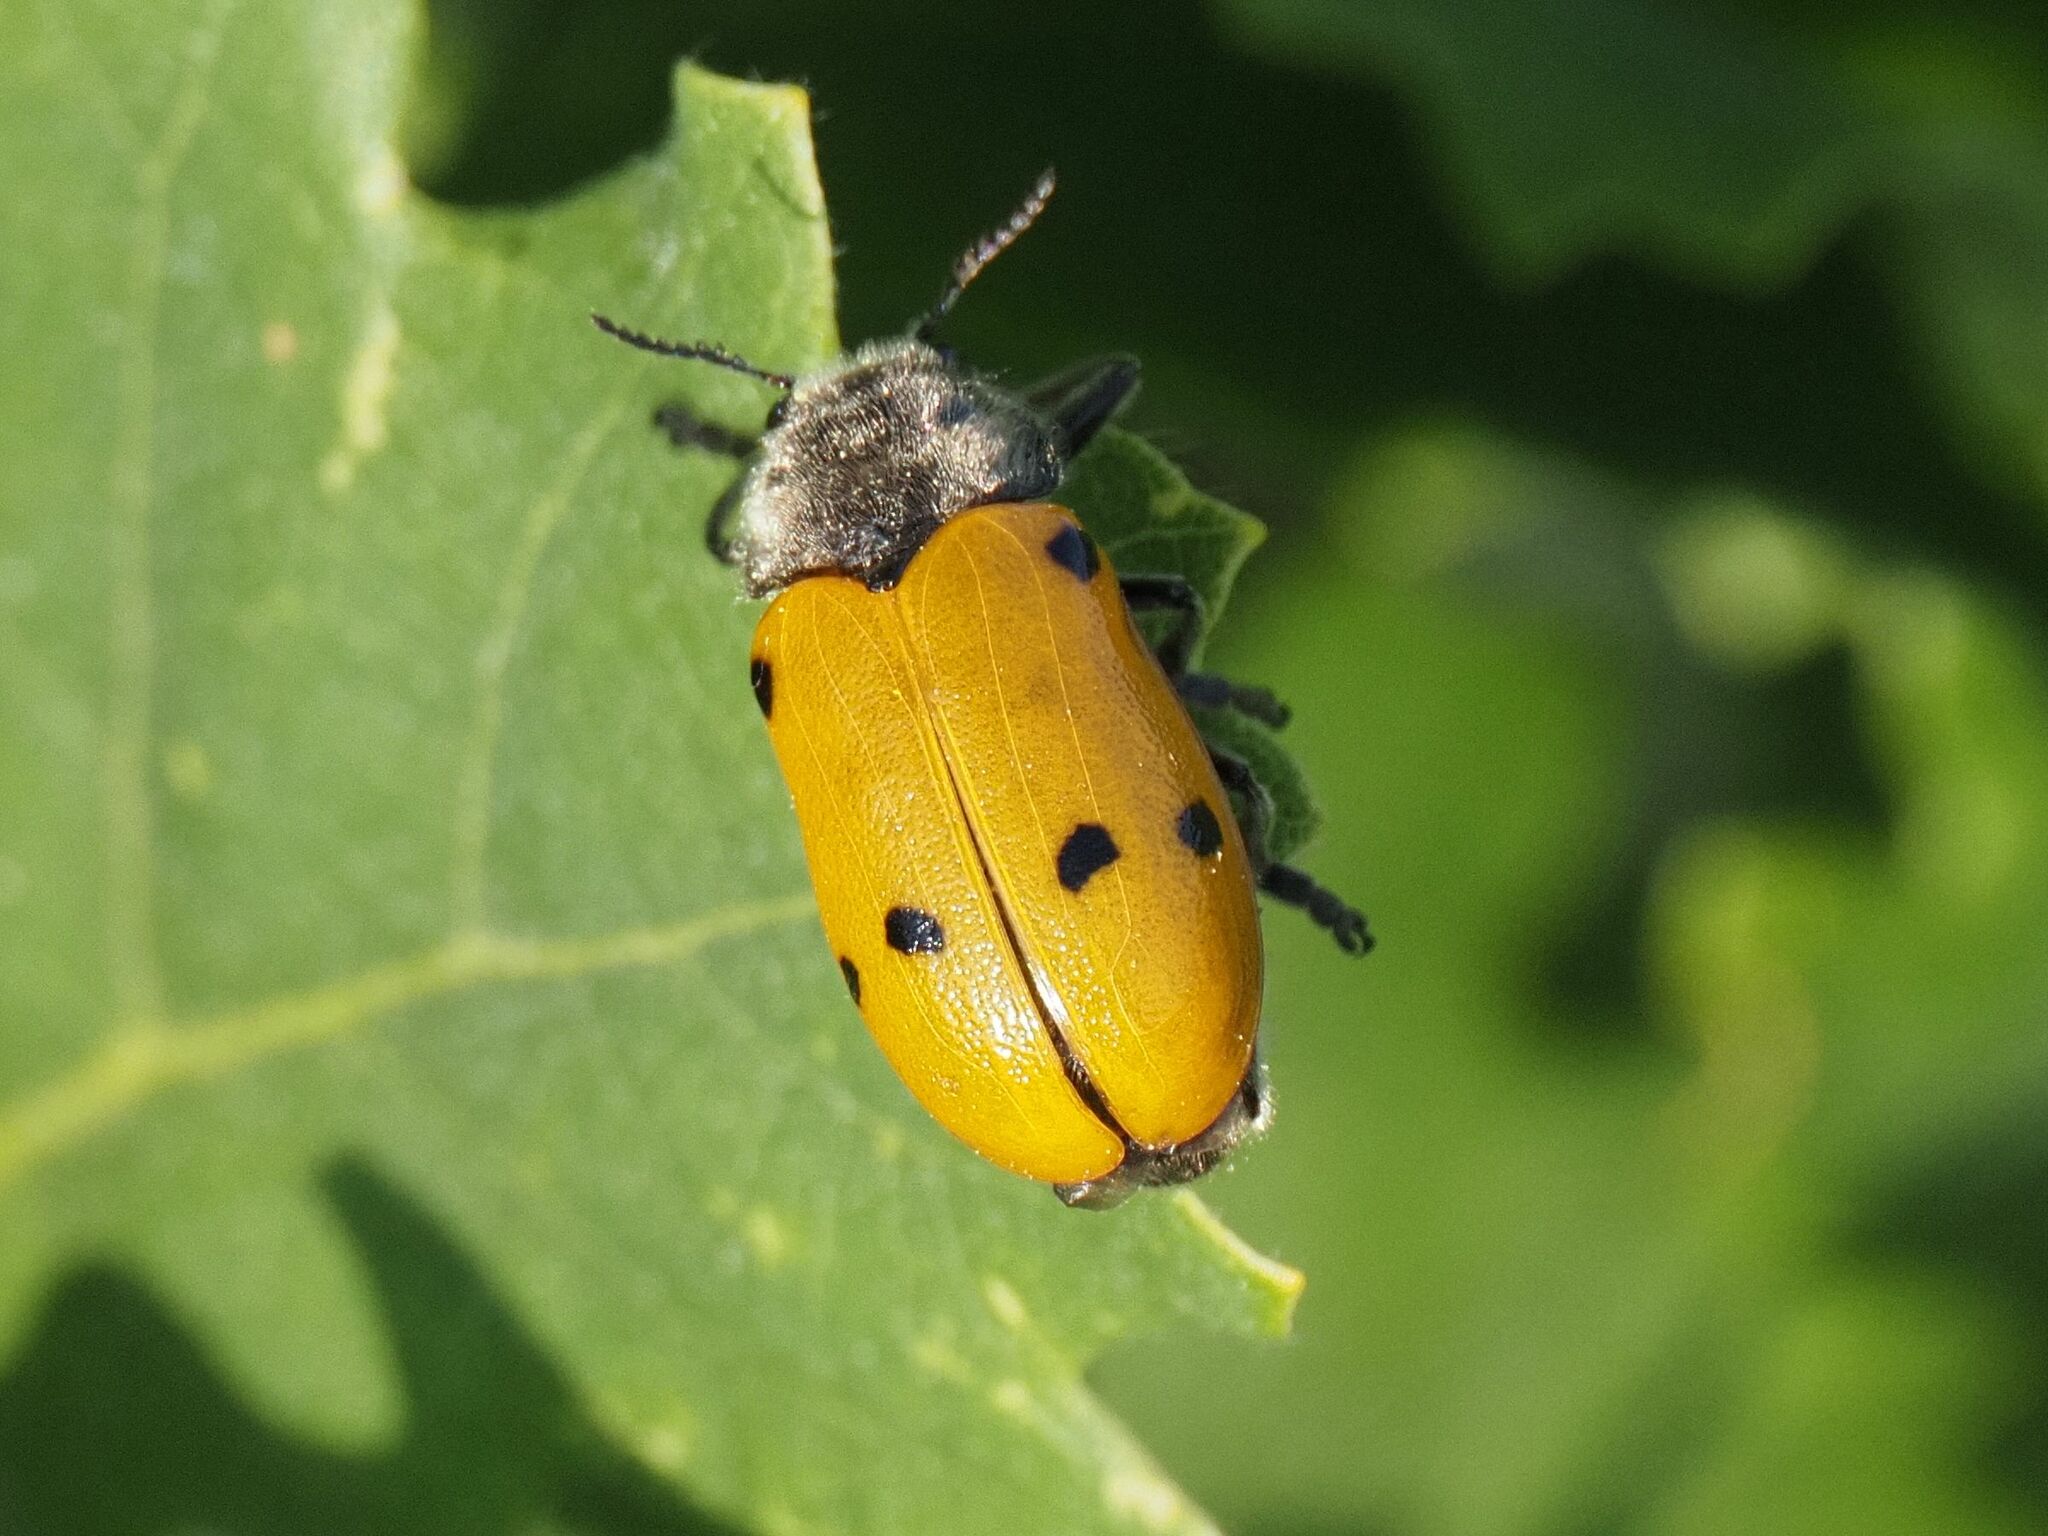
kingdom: Animalia
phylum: Arthropoda
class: Insecta
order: Coleoptera
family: Chrysomelidae
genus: Lachnaia
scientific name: Lachnaia sexpunctata
